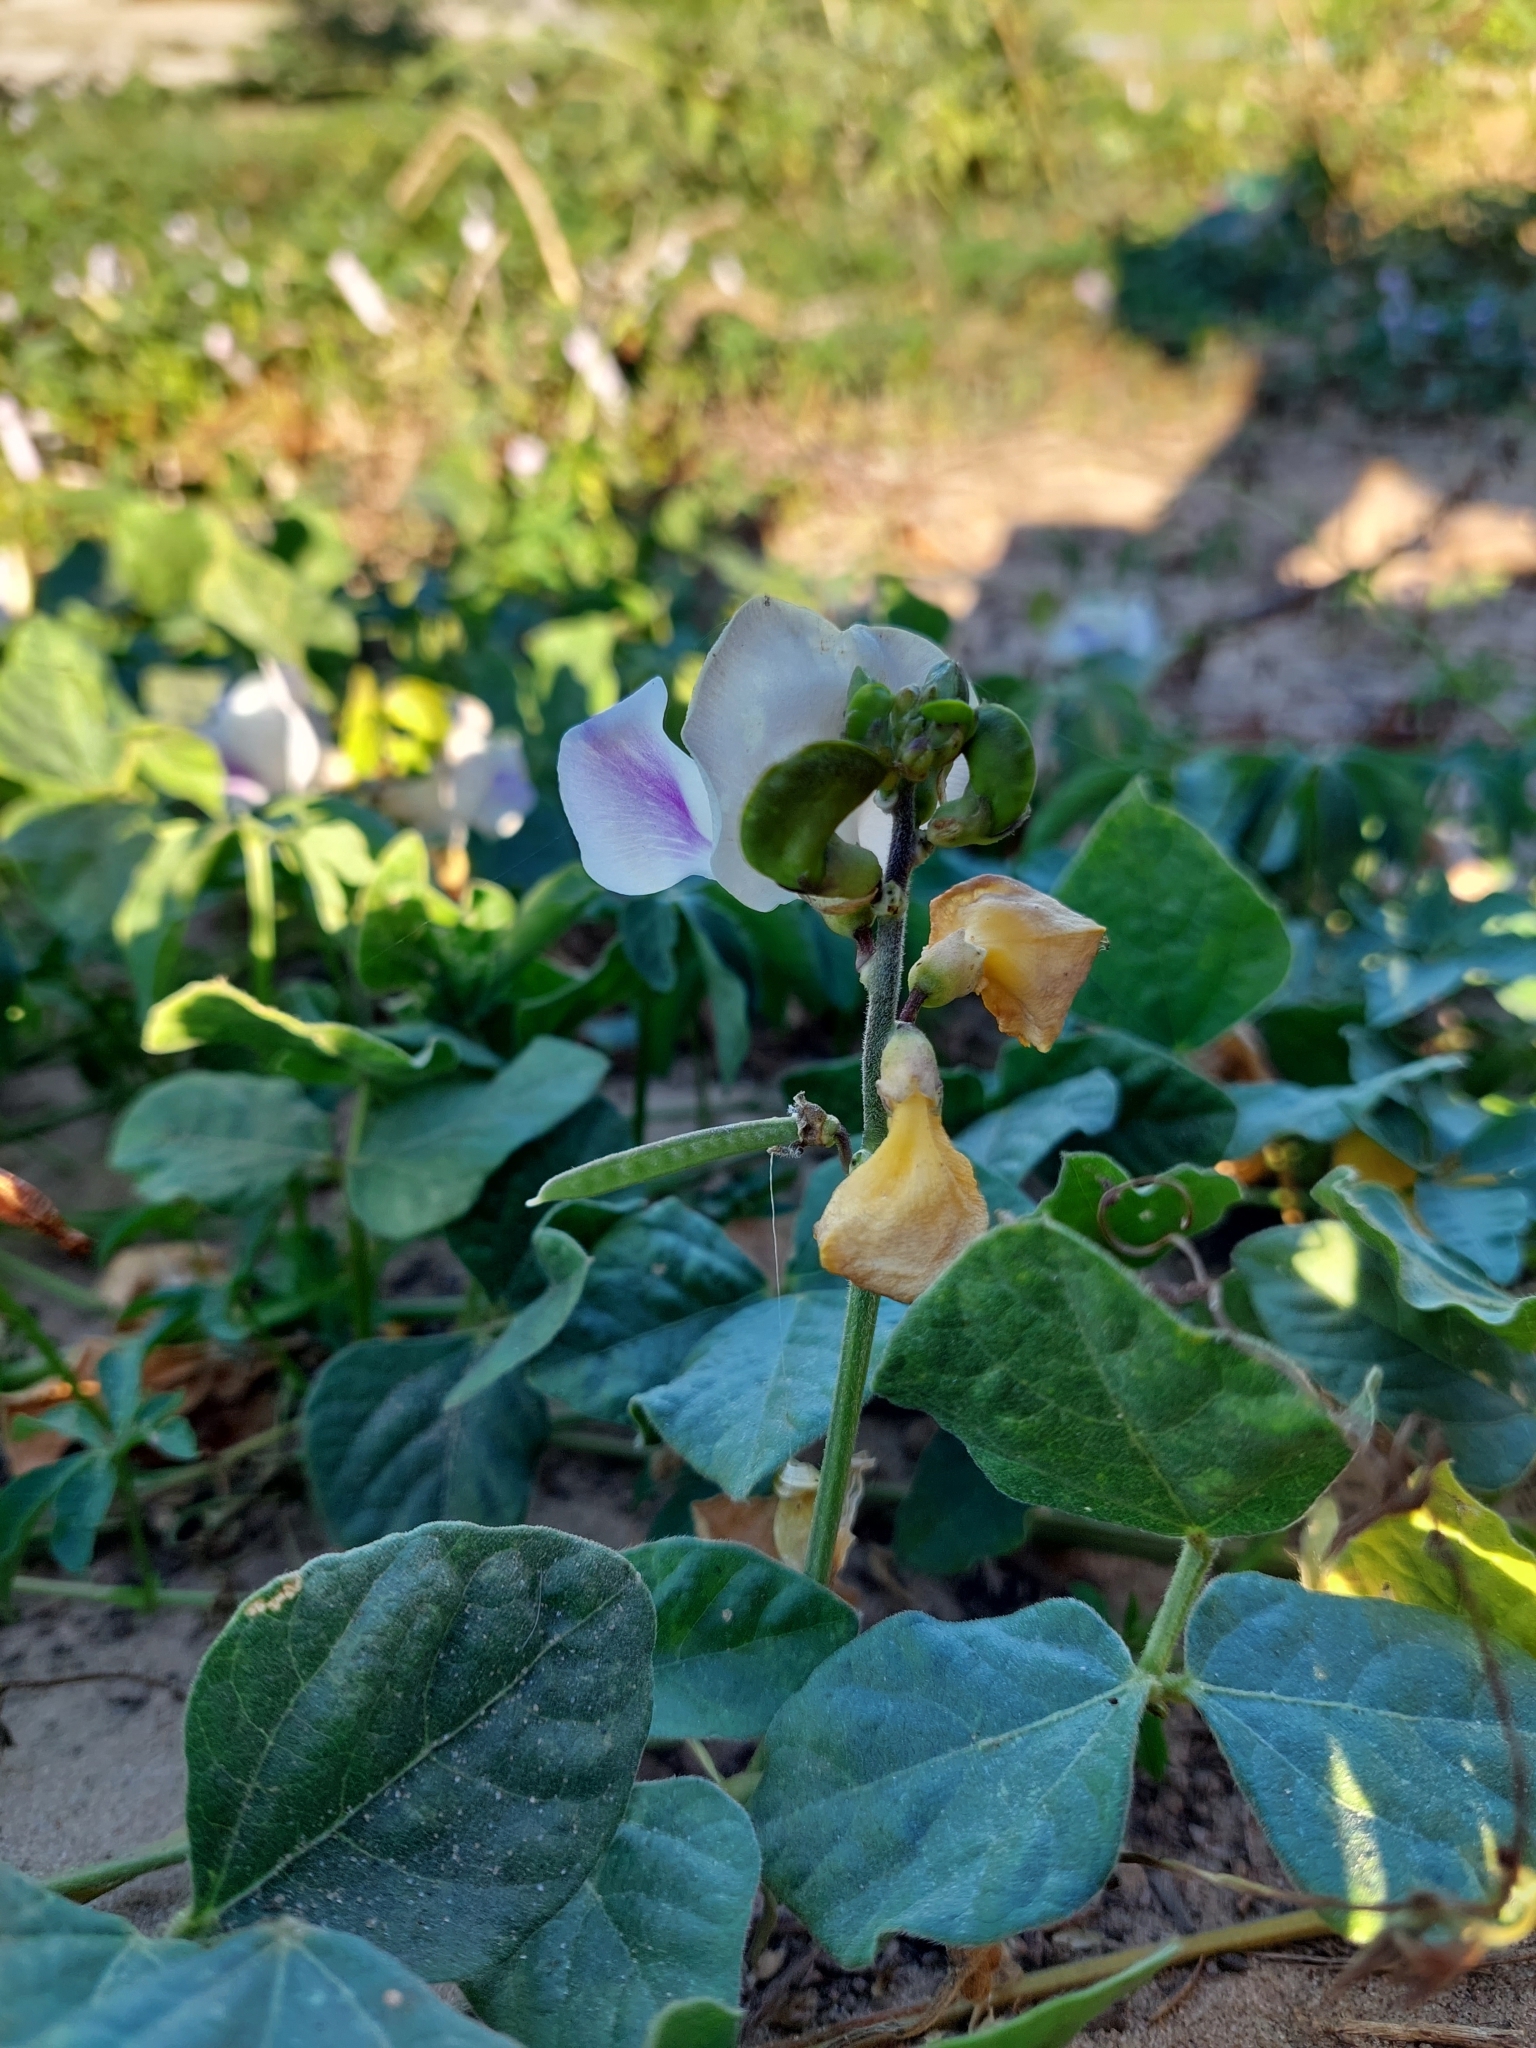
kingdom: Plantae
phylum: Tracheophyta
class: Magnoliopsida
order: Fabales
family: Fabaceae
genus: Leptospron
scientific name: Leptospron adenanthum
